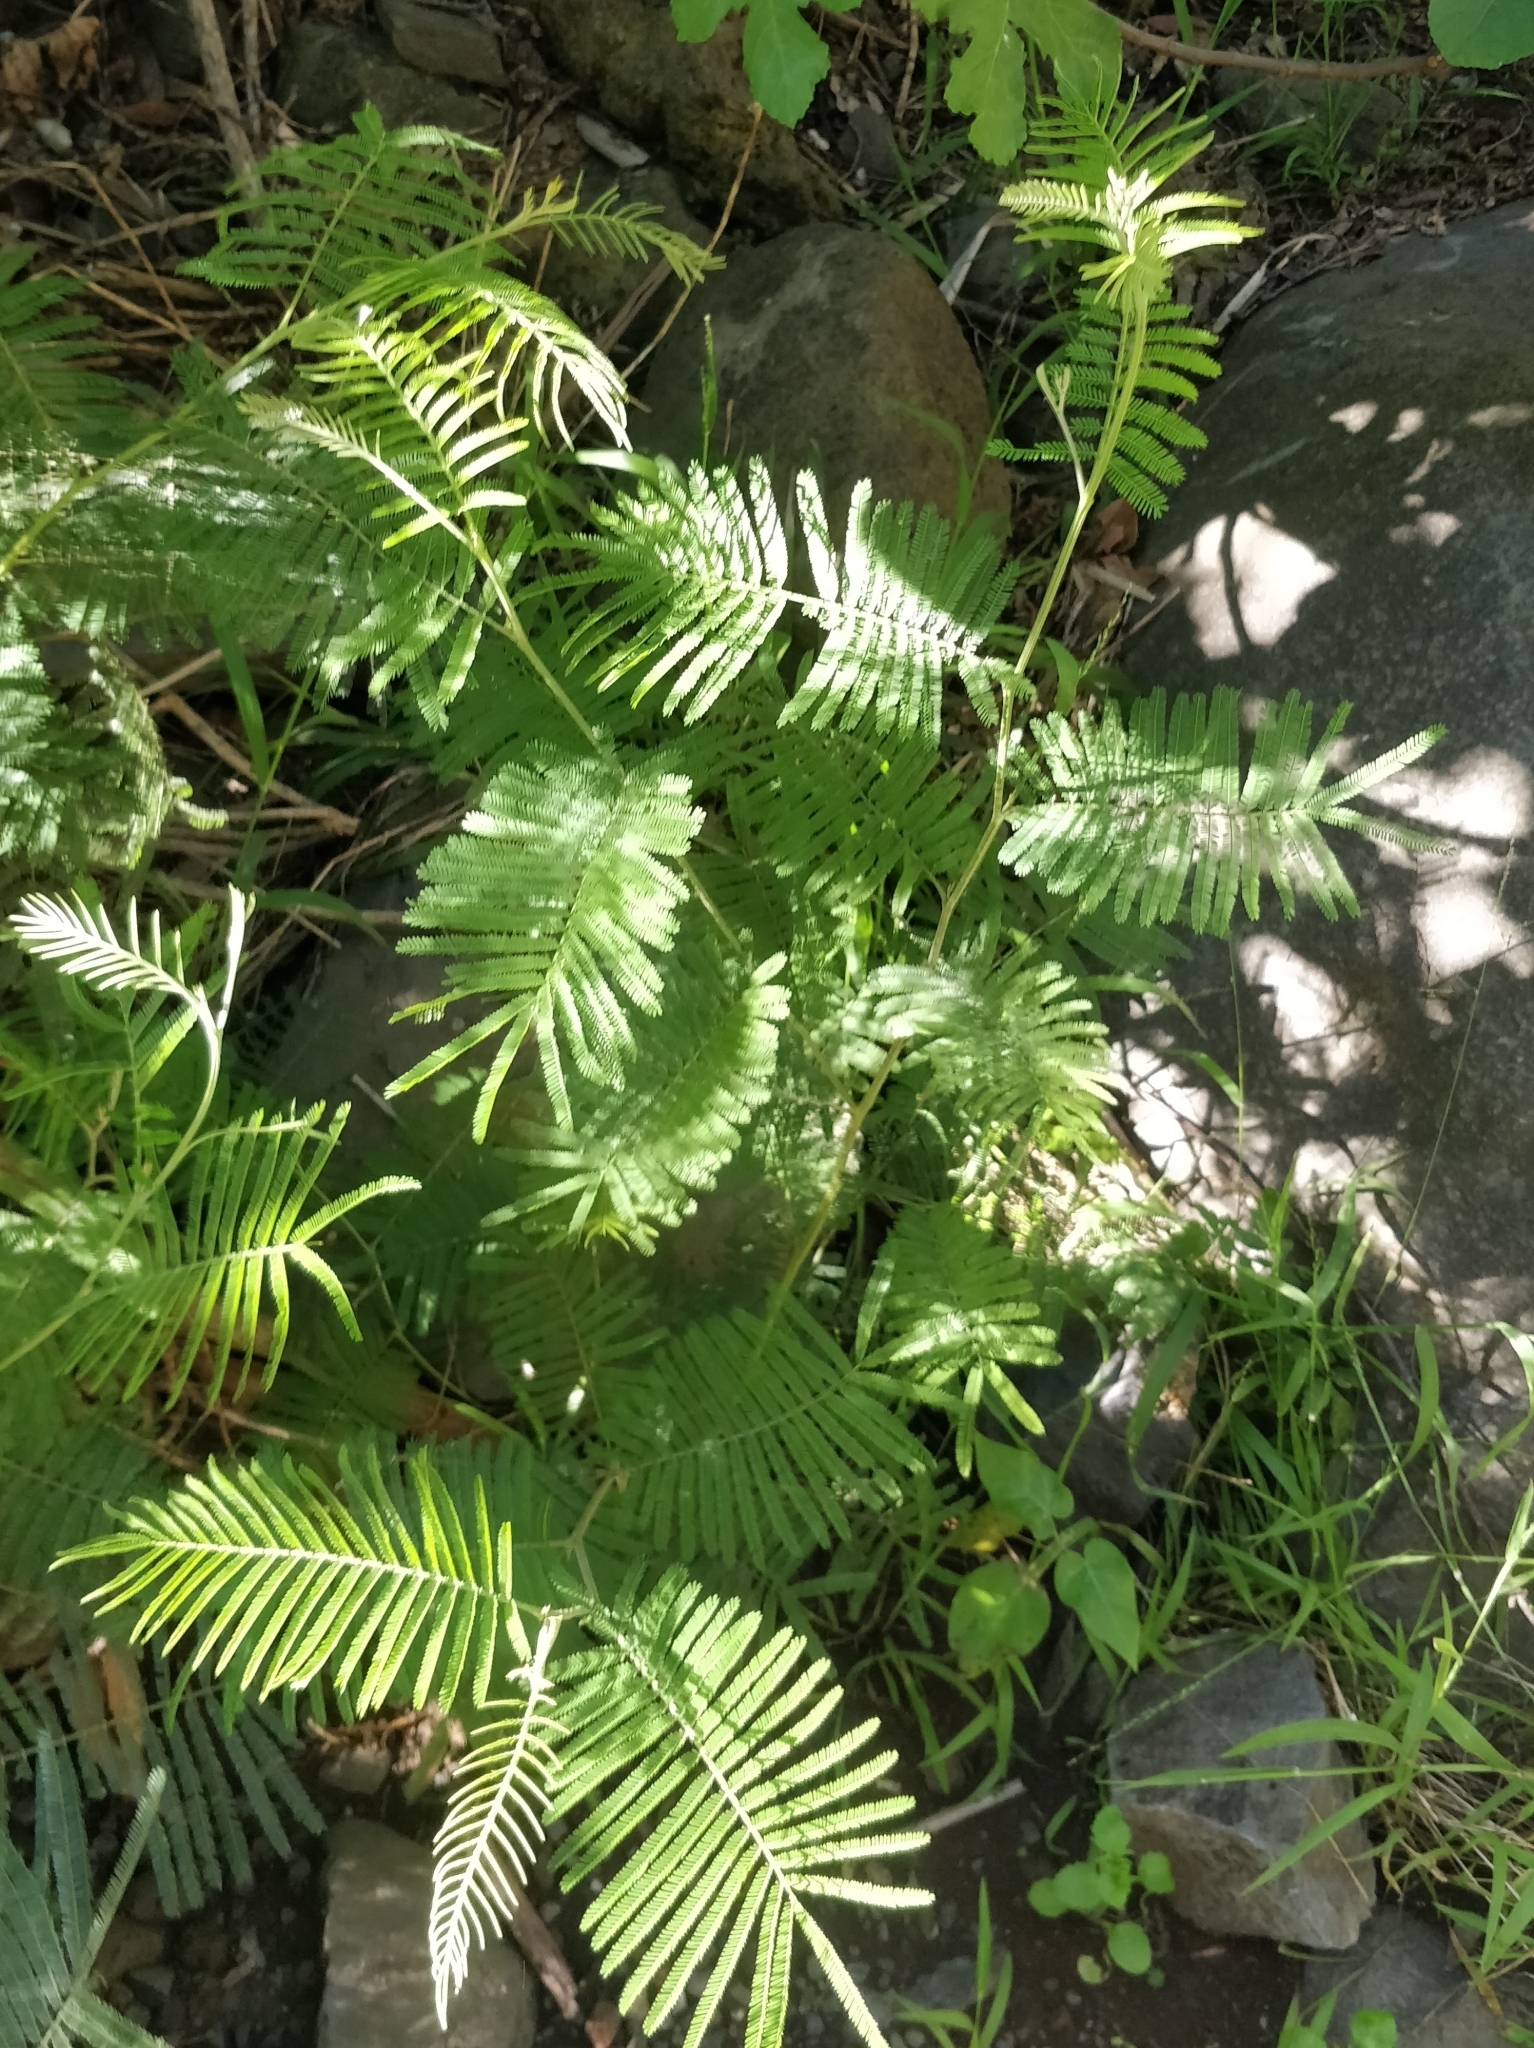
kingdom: Plantae
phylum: Tracheophyta
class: Magnoliopsida
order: Fabales
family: Fabaceae
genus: Acacia
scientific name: Acacia mearnsii
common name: Black wattle
